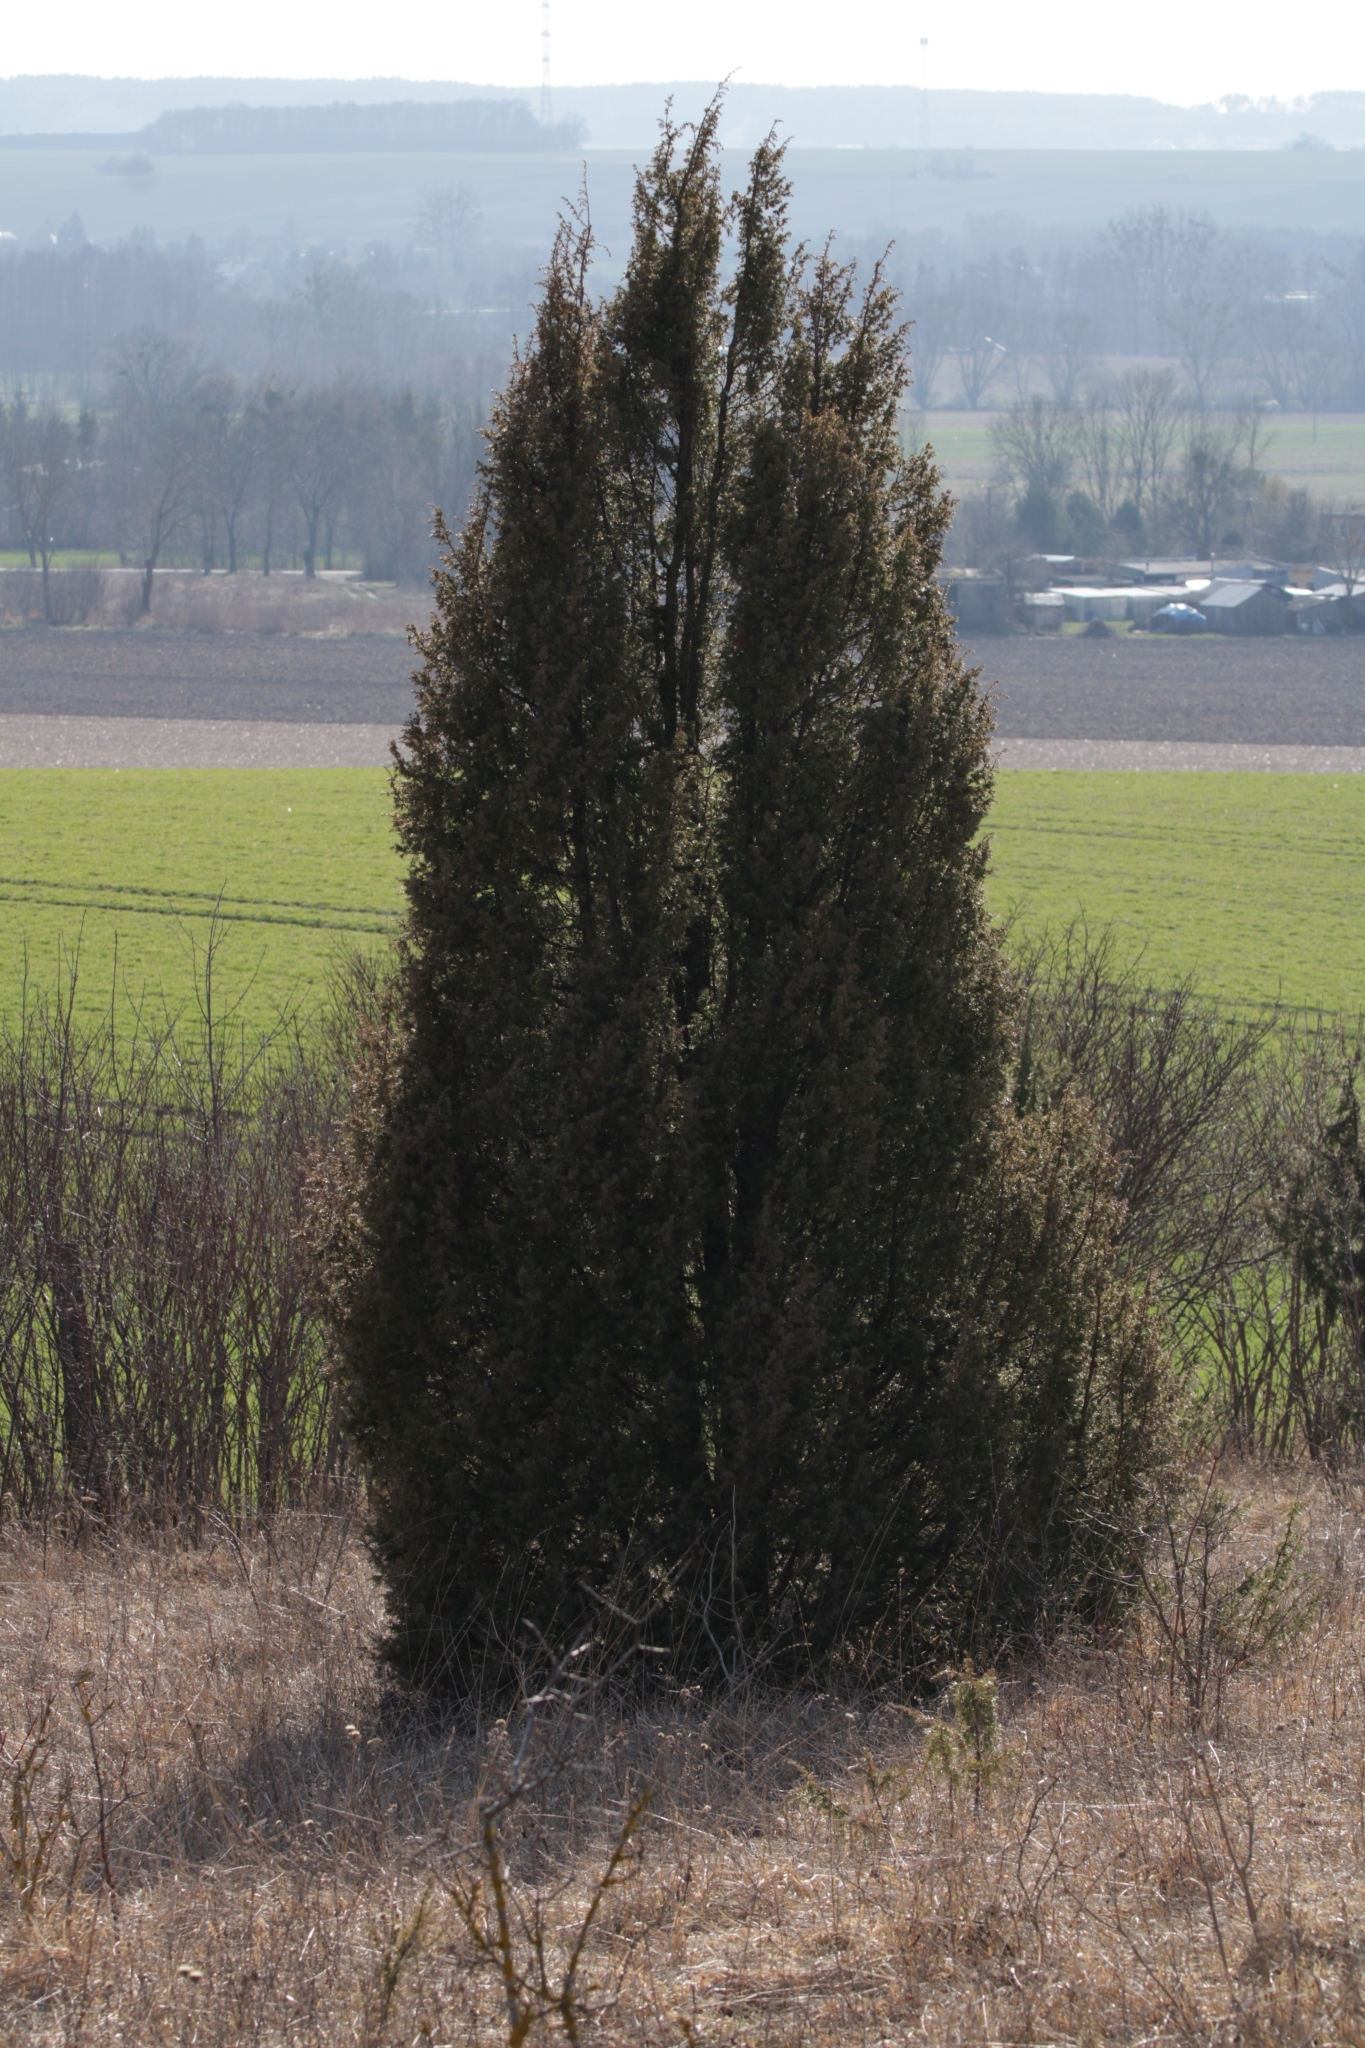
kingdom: Plantae
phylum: Tracheophyta
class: Pinopsida
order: Pinales
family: Cupressaceae
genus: Juniperus
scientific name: Juniperus communis
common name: Common juniper
